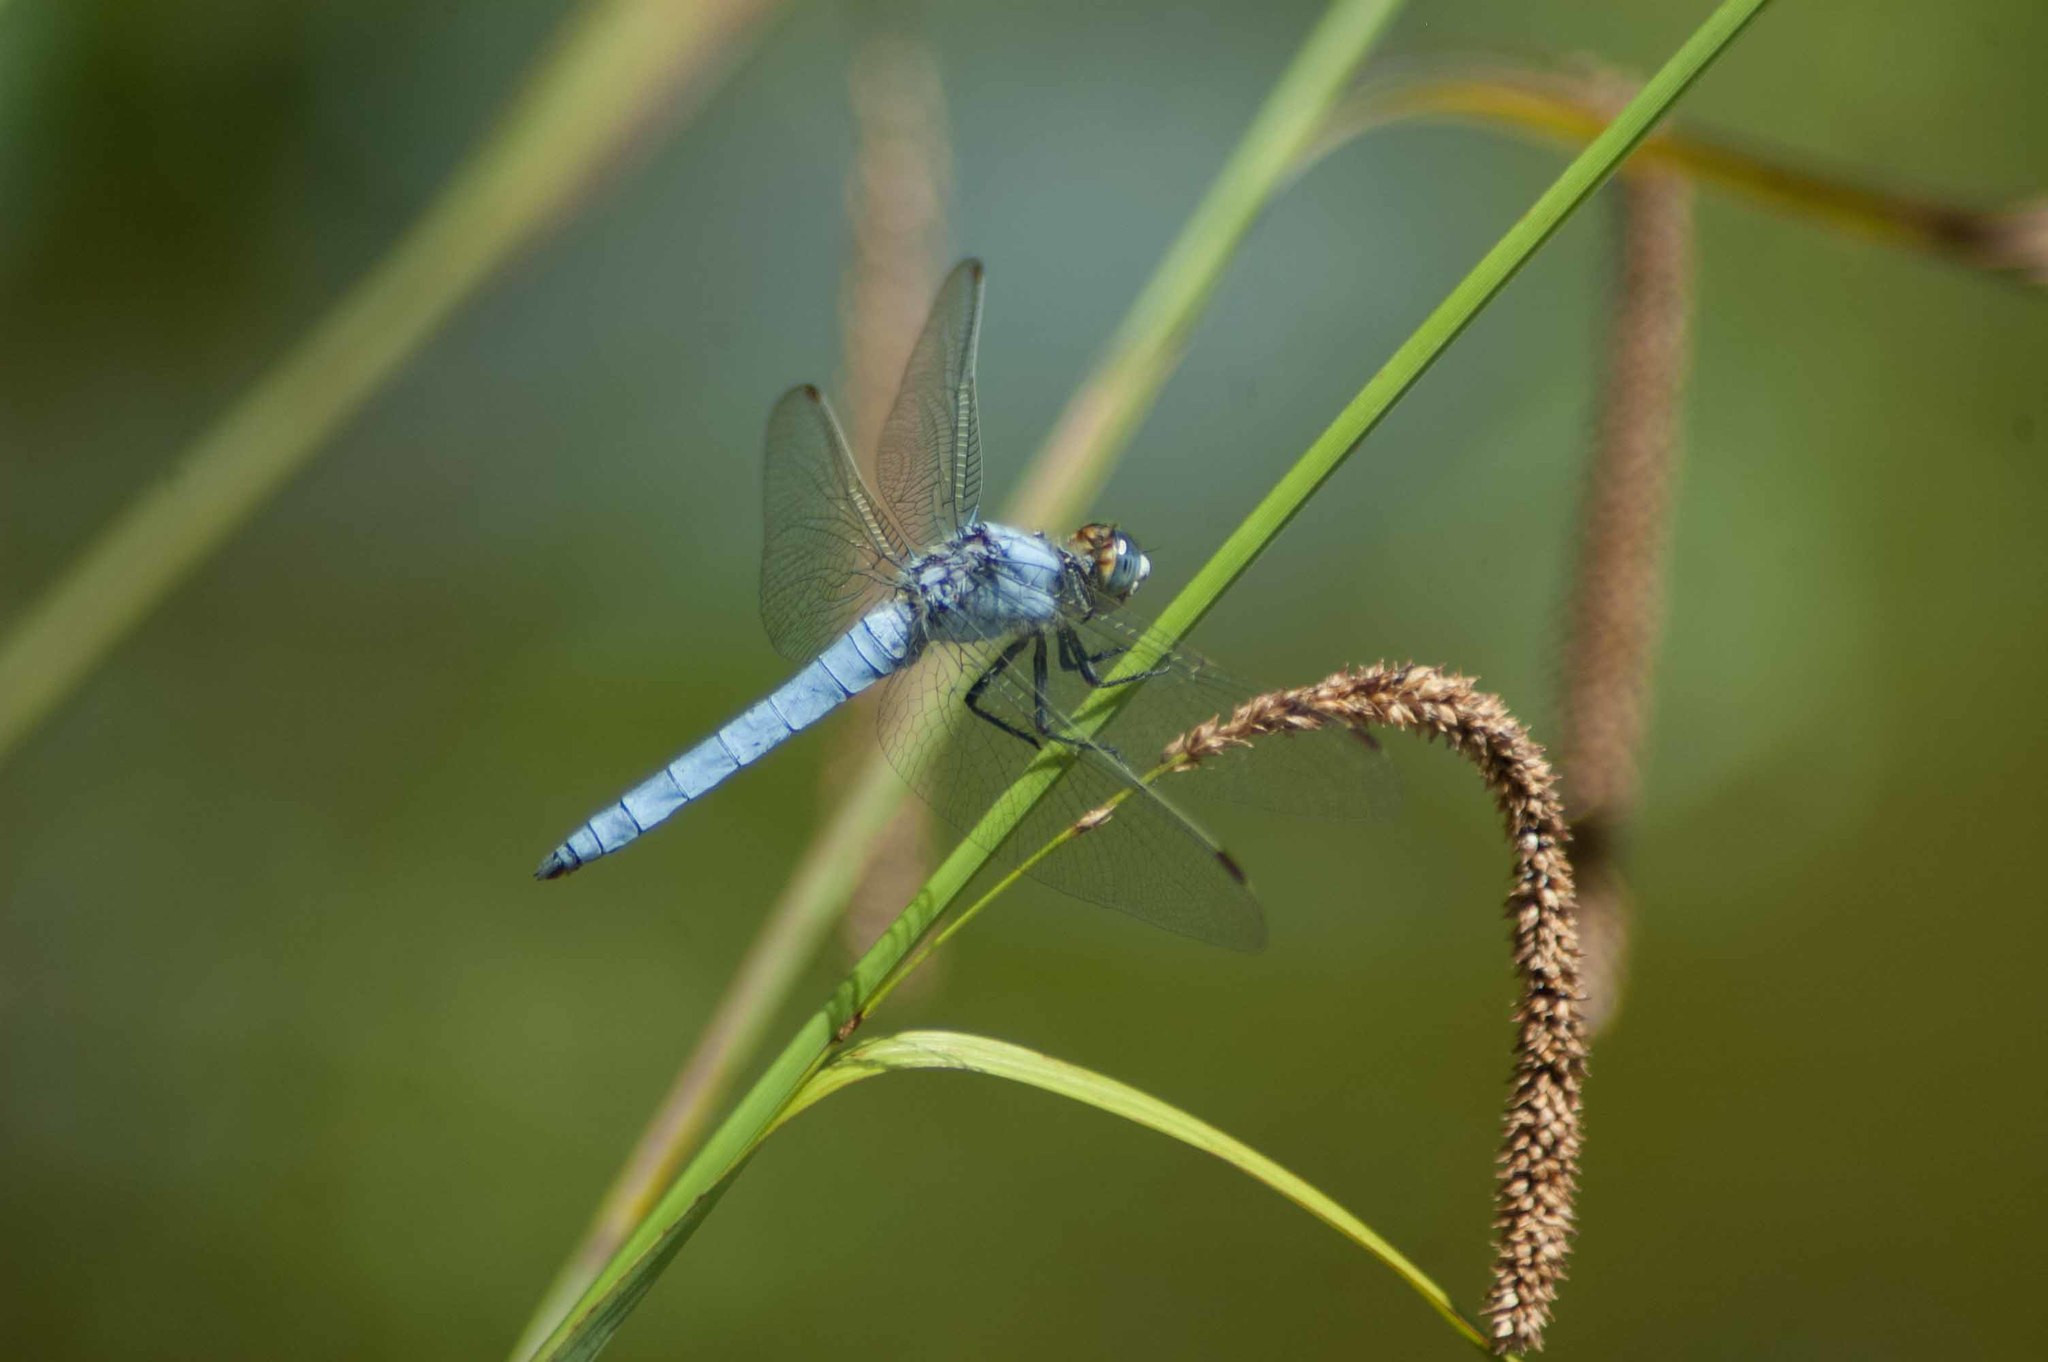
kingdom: Animalia
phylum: Arthropoda
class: Insecta
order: Odonata
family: Libellulidae
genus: Orthetrum
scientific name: Orthetrum brunneum
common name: Southern skimmer
